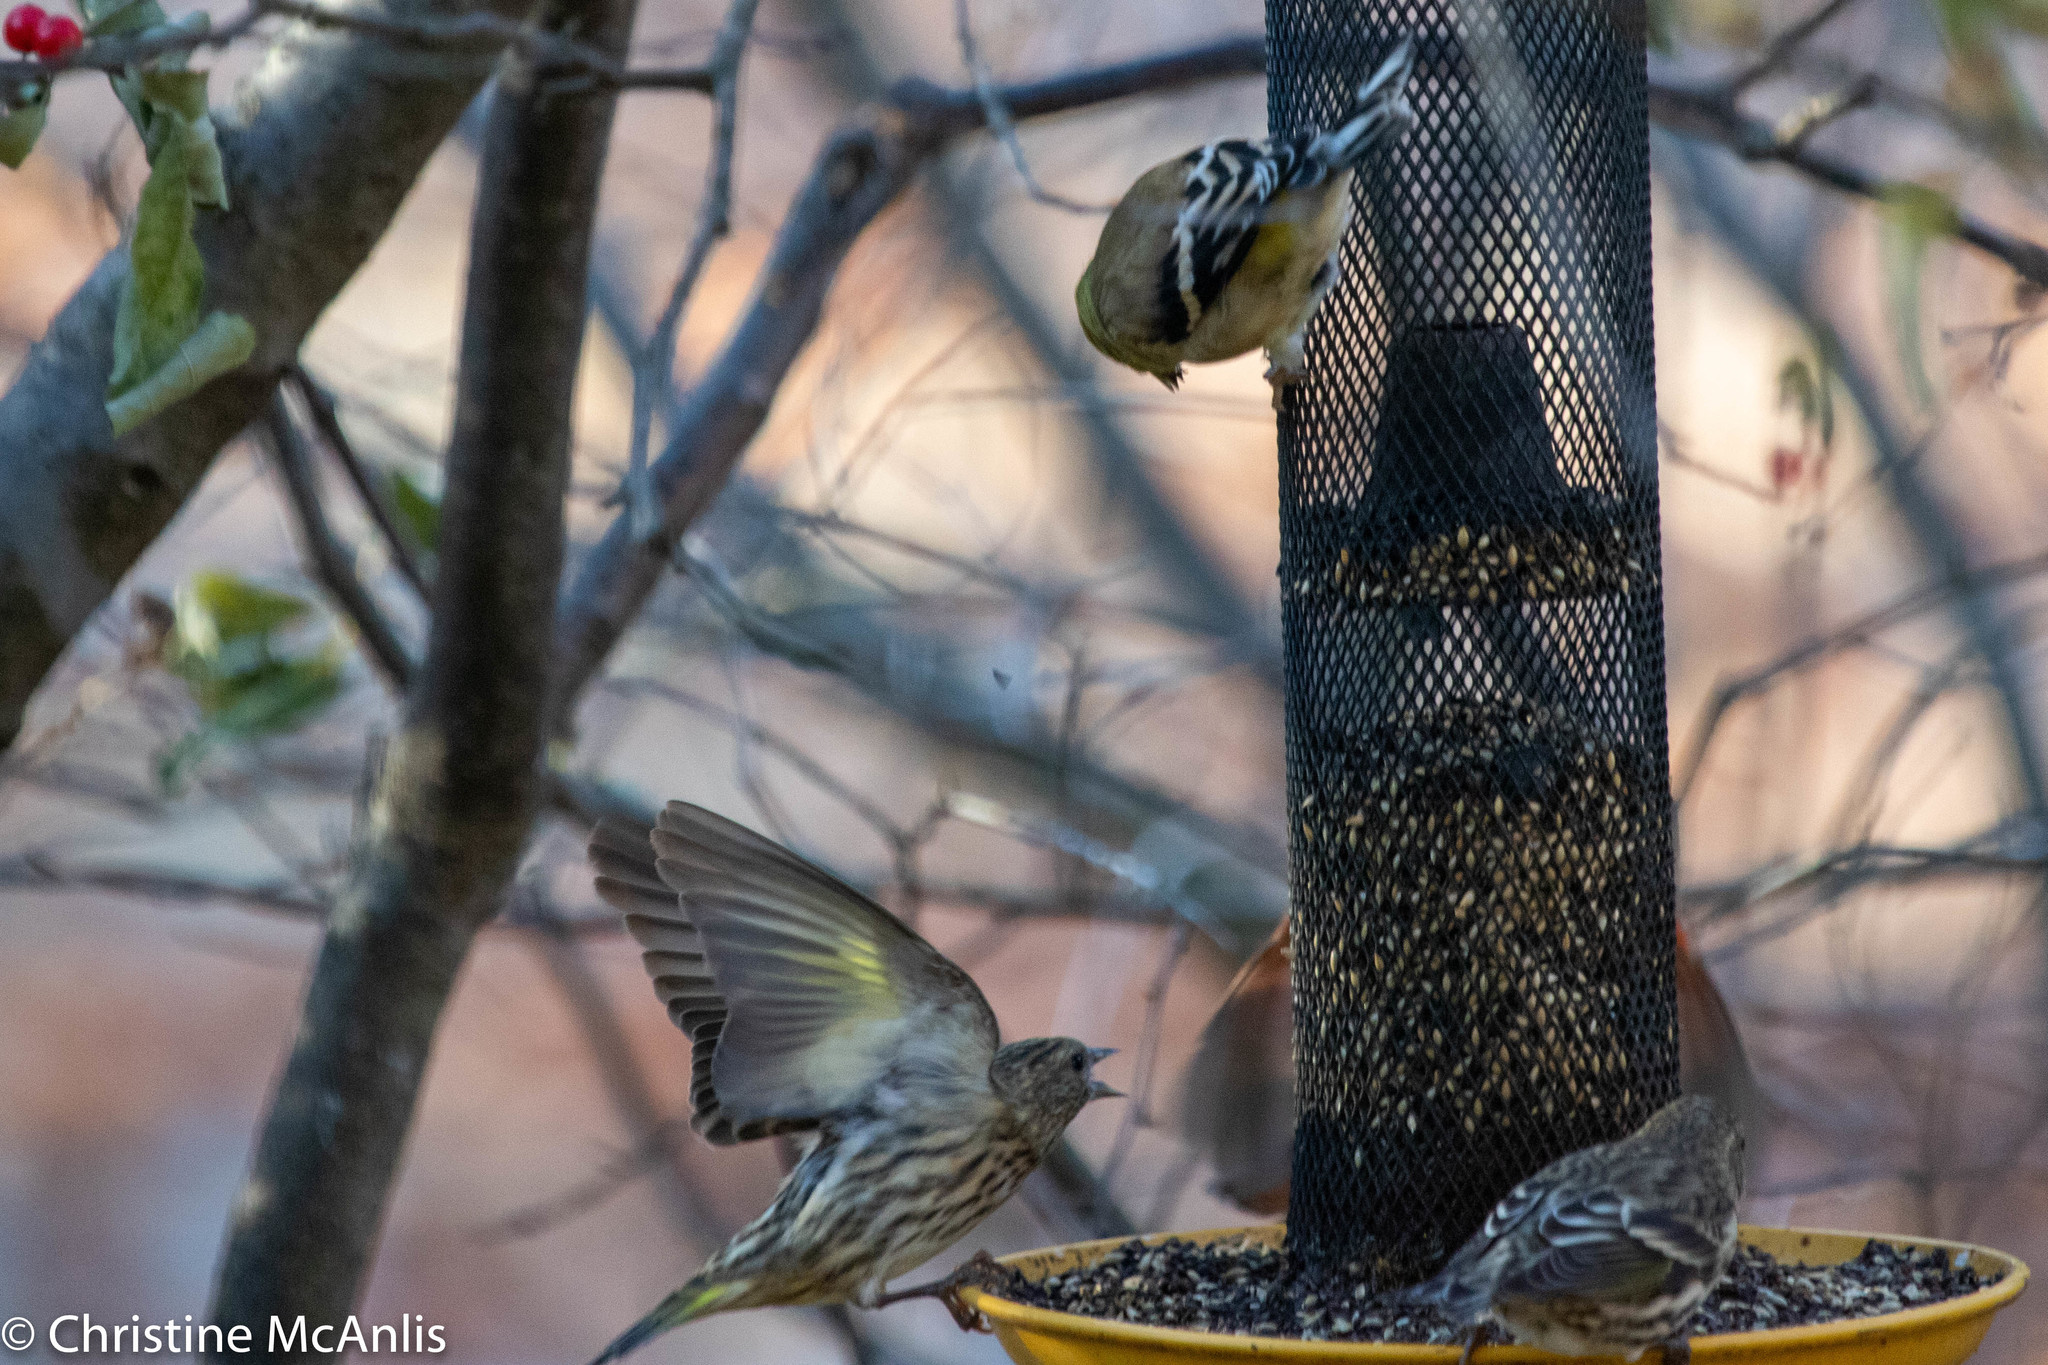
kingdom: Animalia
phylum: Chordata
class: Aves
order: Passeriformes
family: Fringillidae
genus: Spinus
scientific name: Spinus pinus
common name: Pine siskin
